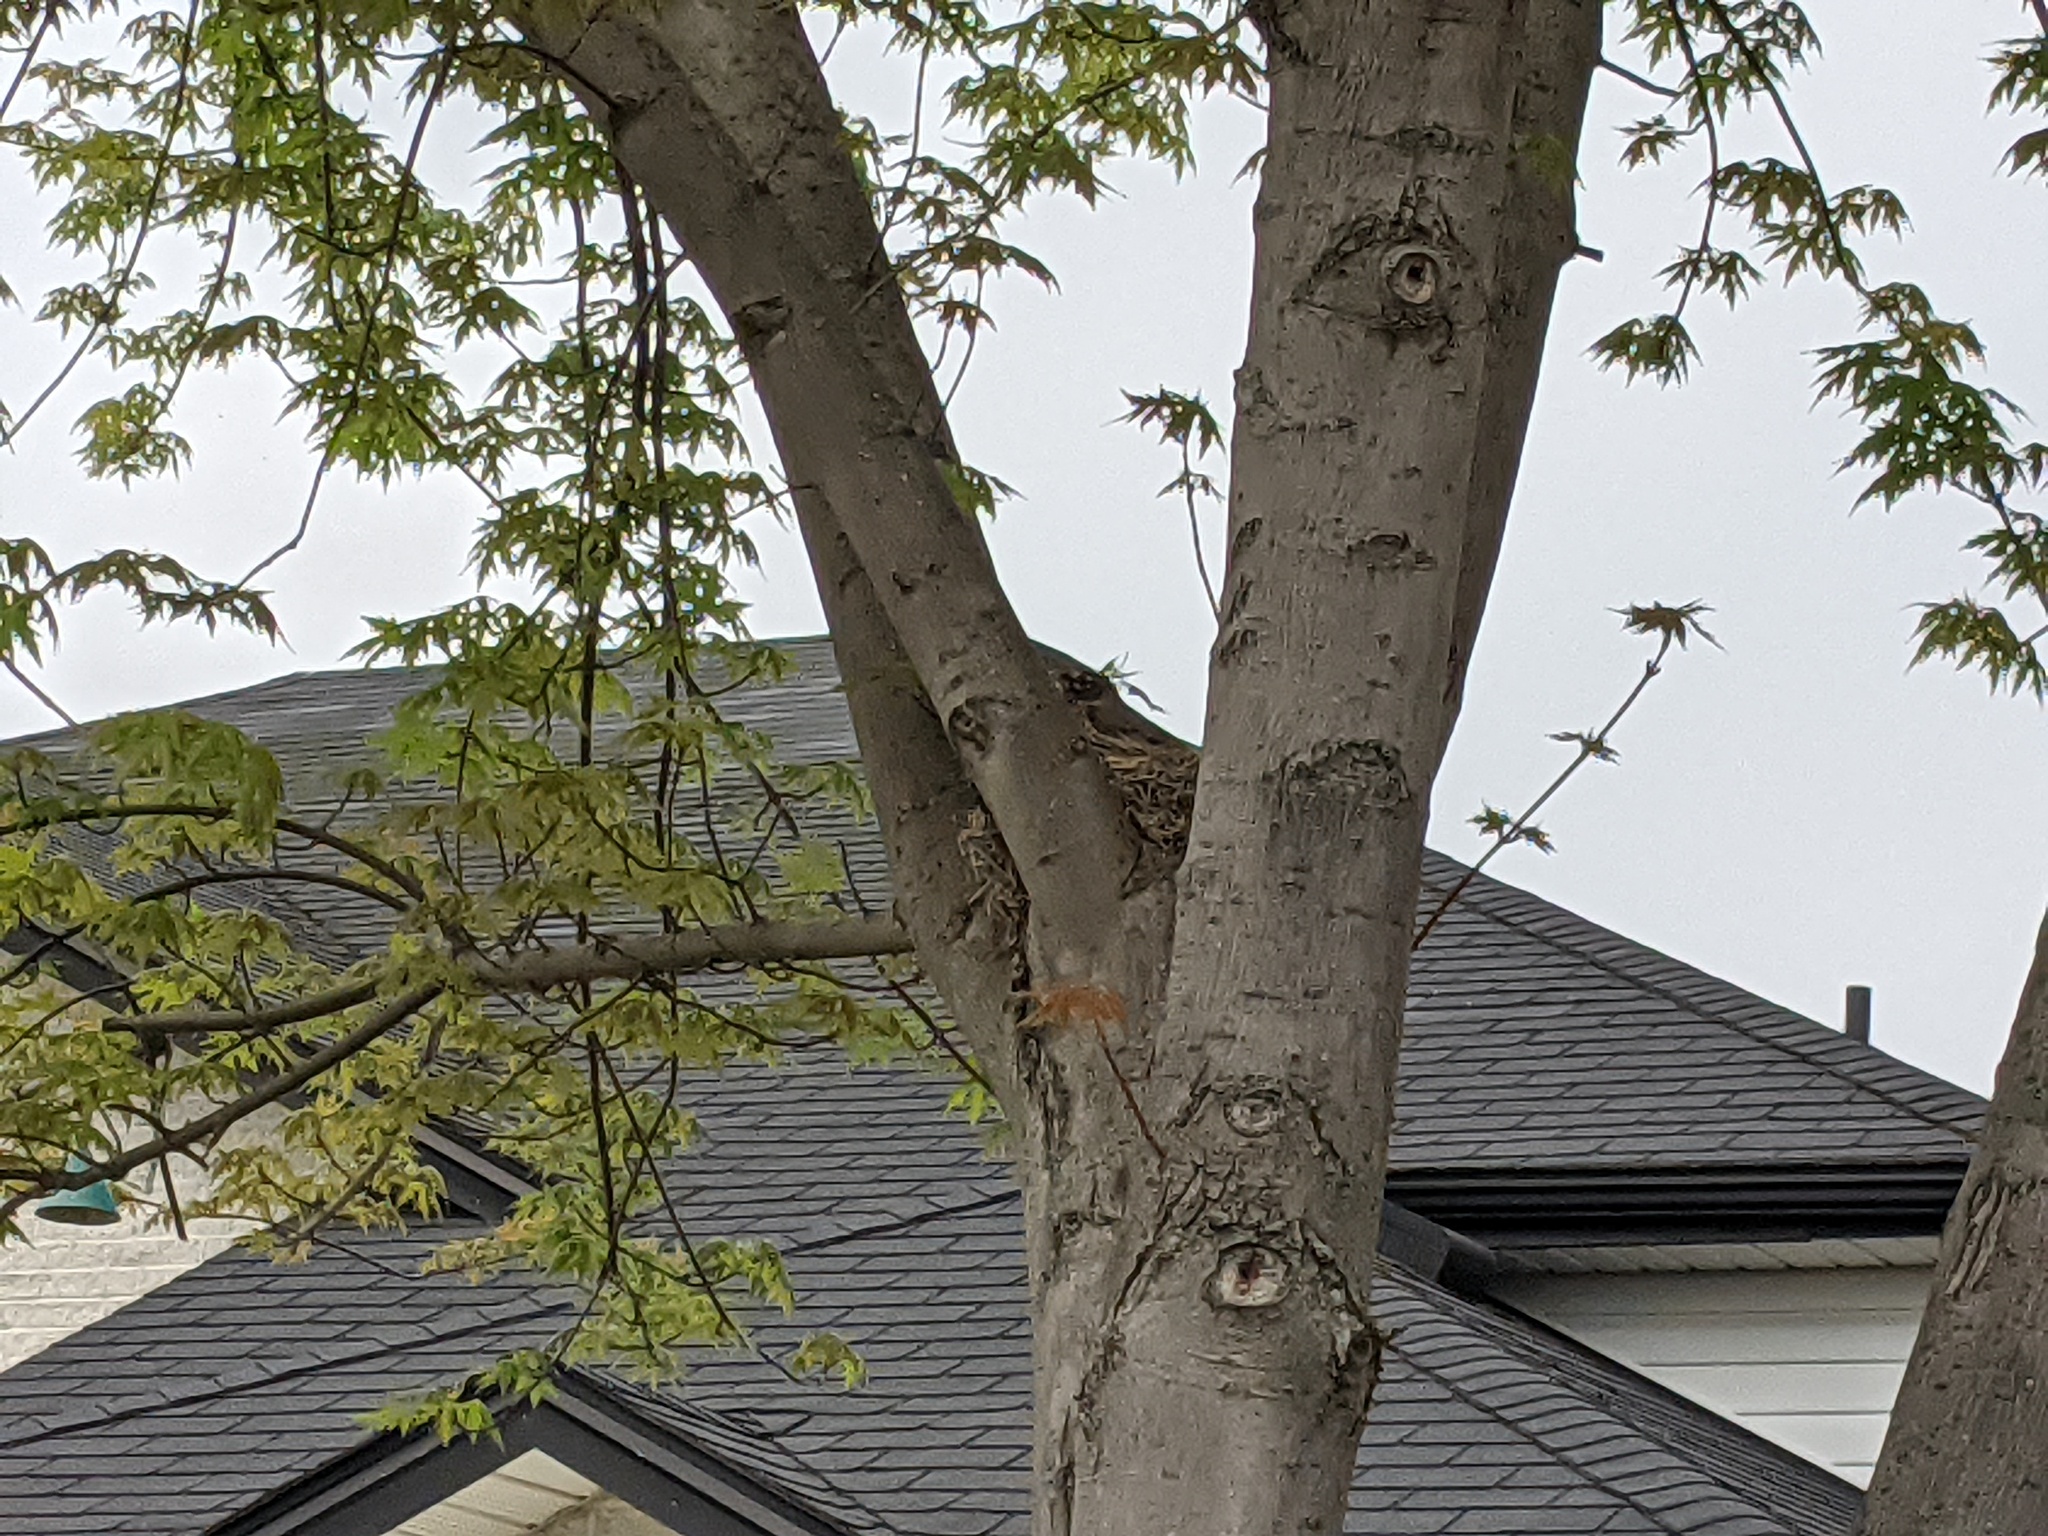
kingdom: Animalia
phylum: Chordata
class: Aves
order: Passeriformes
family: Turdidae
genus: Turdus
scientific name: Turdus migratorius
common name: American robin
